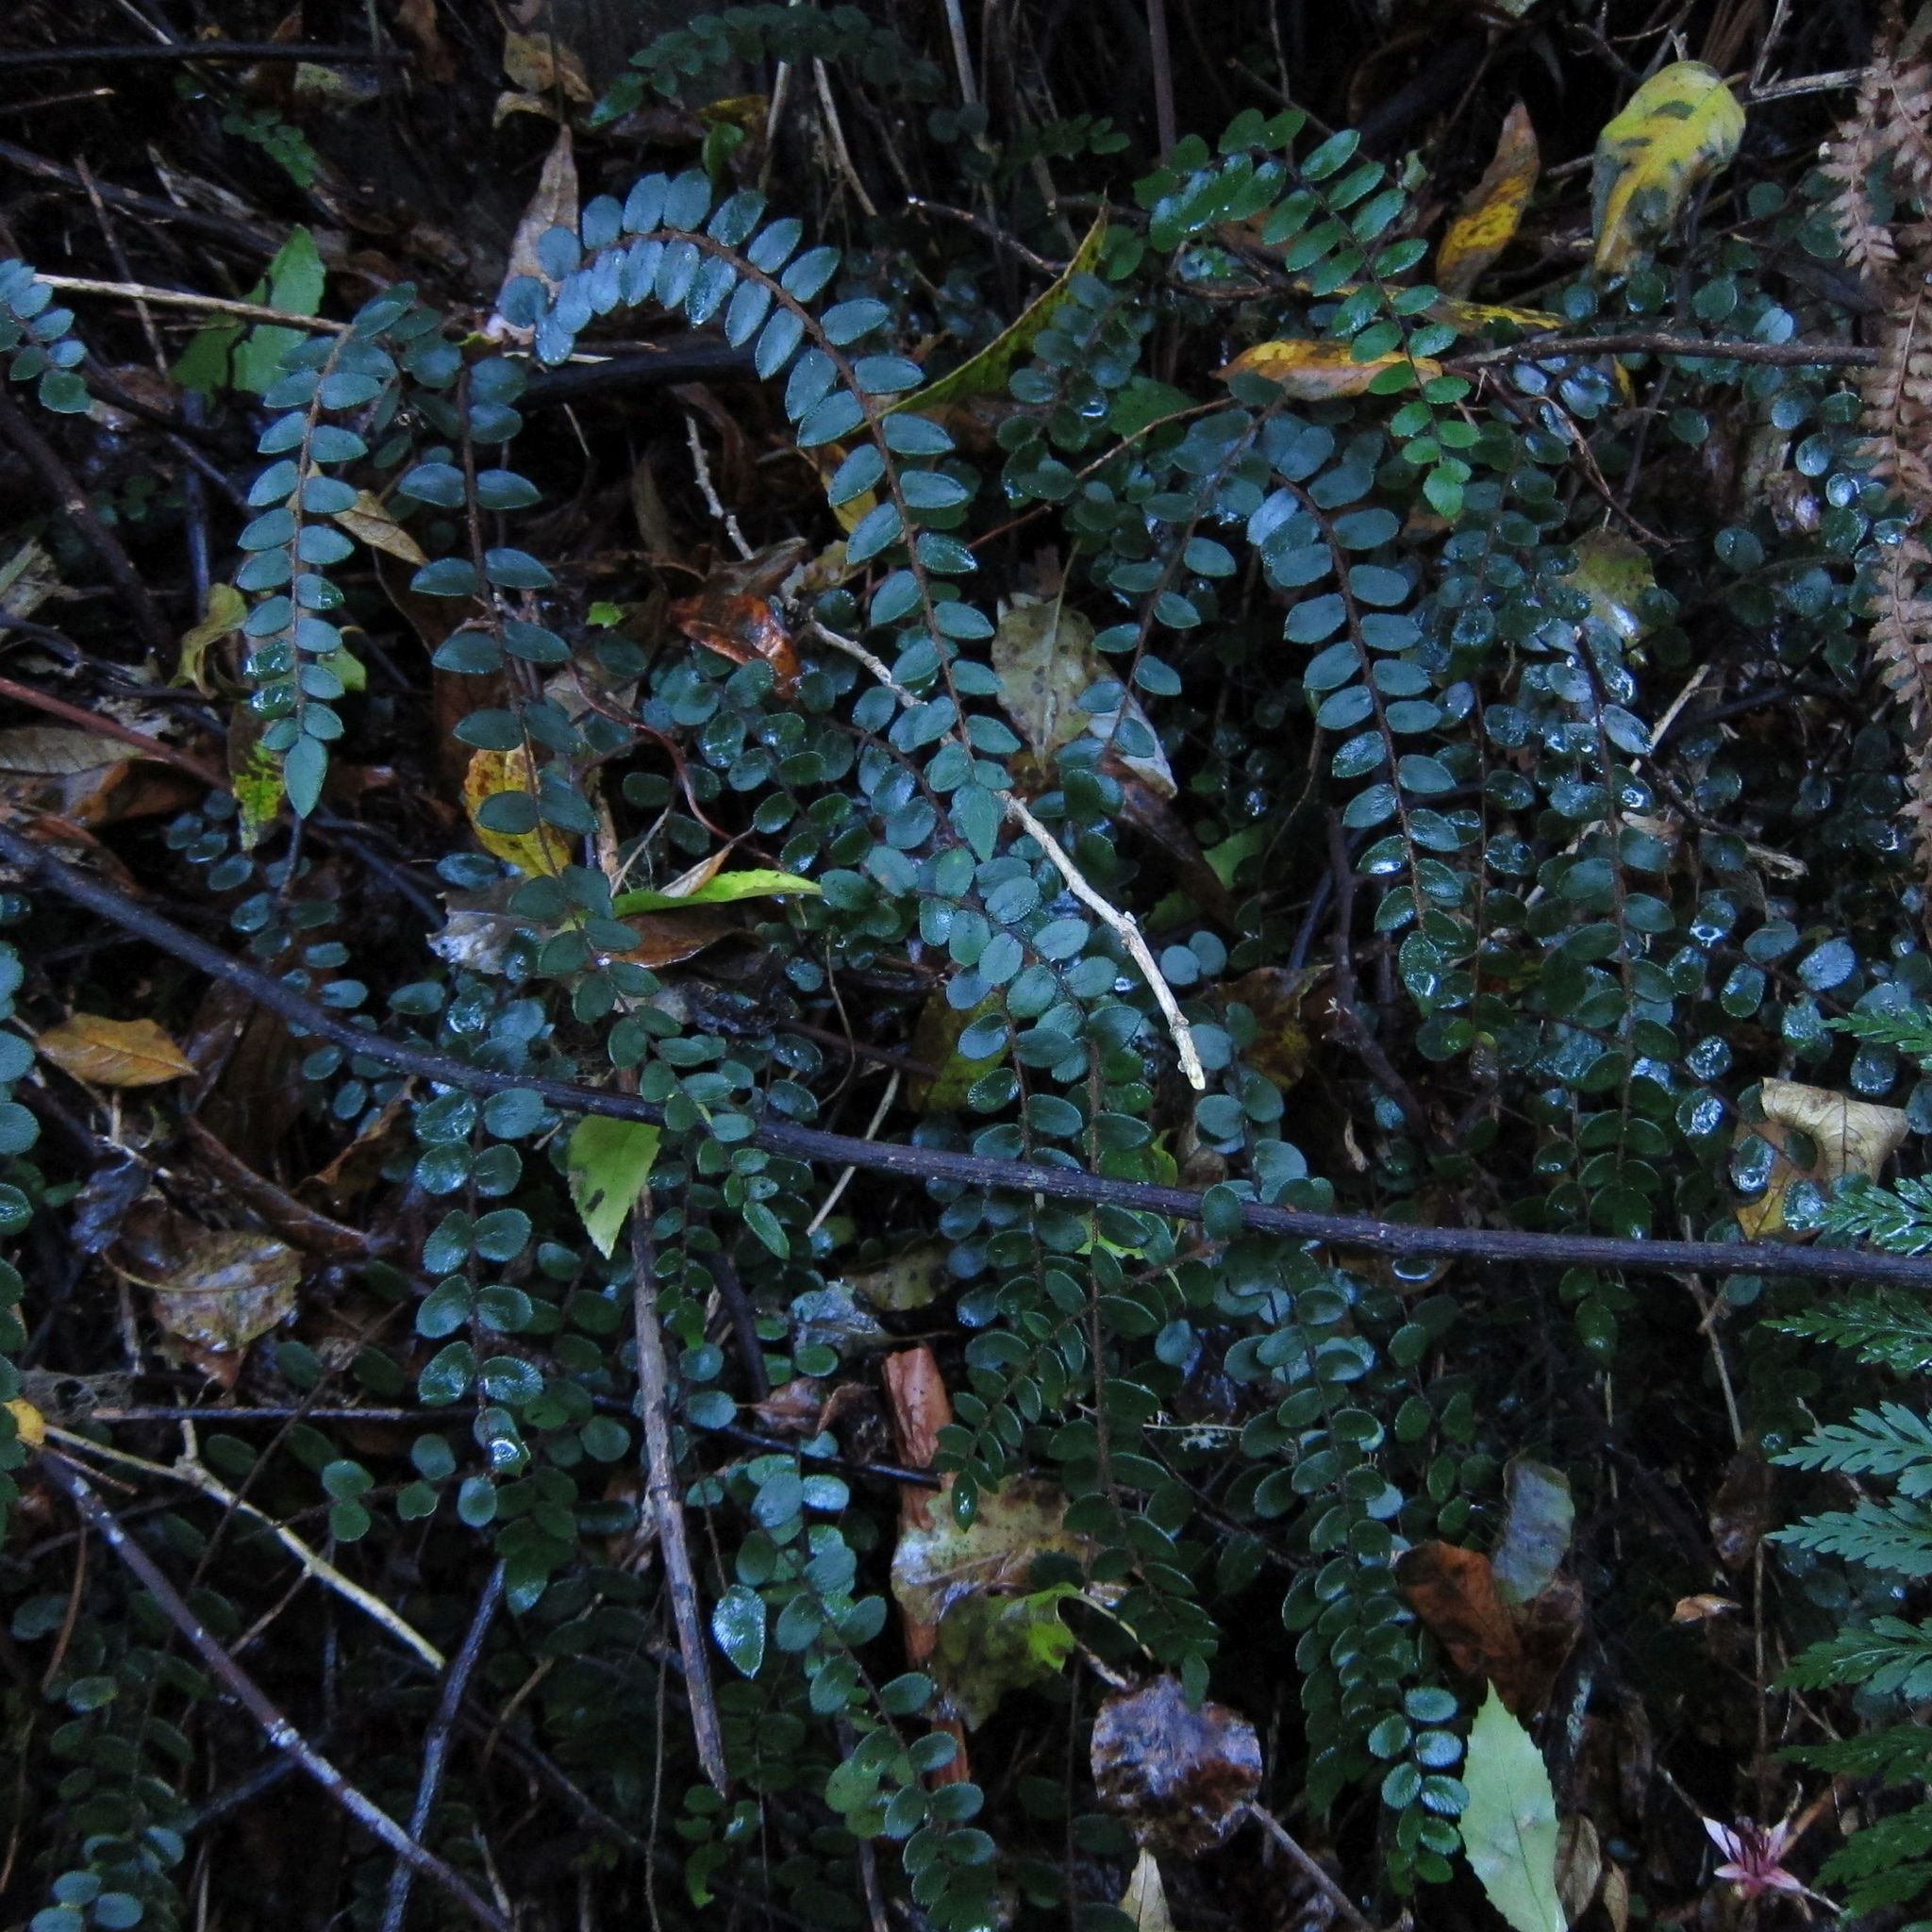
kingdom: Plantae
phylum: Tracheophyta
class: Polypodiopsida
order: Polypodiales
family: Pteridaceae
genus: Pellaea
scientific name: Pellaea rotundifolia
